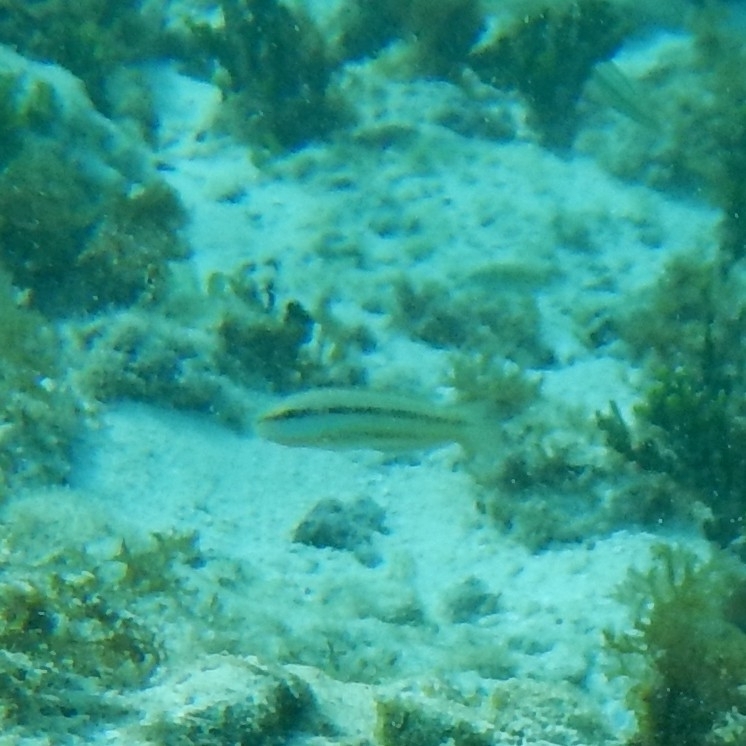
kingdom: Animalia
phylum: Chordata
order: Perciformes
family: Labridae
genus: Halichoeres
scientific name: Halichoeres bivittatus
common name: Slippery dick
